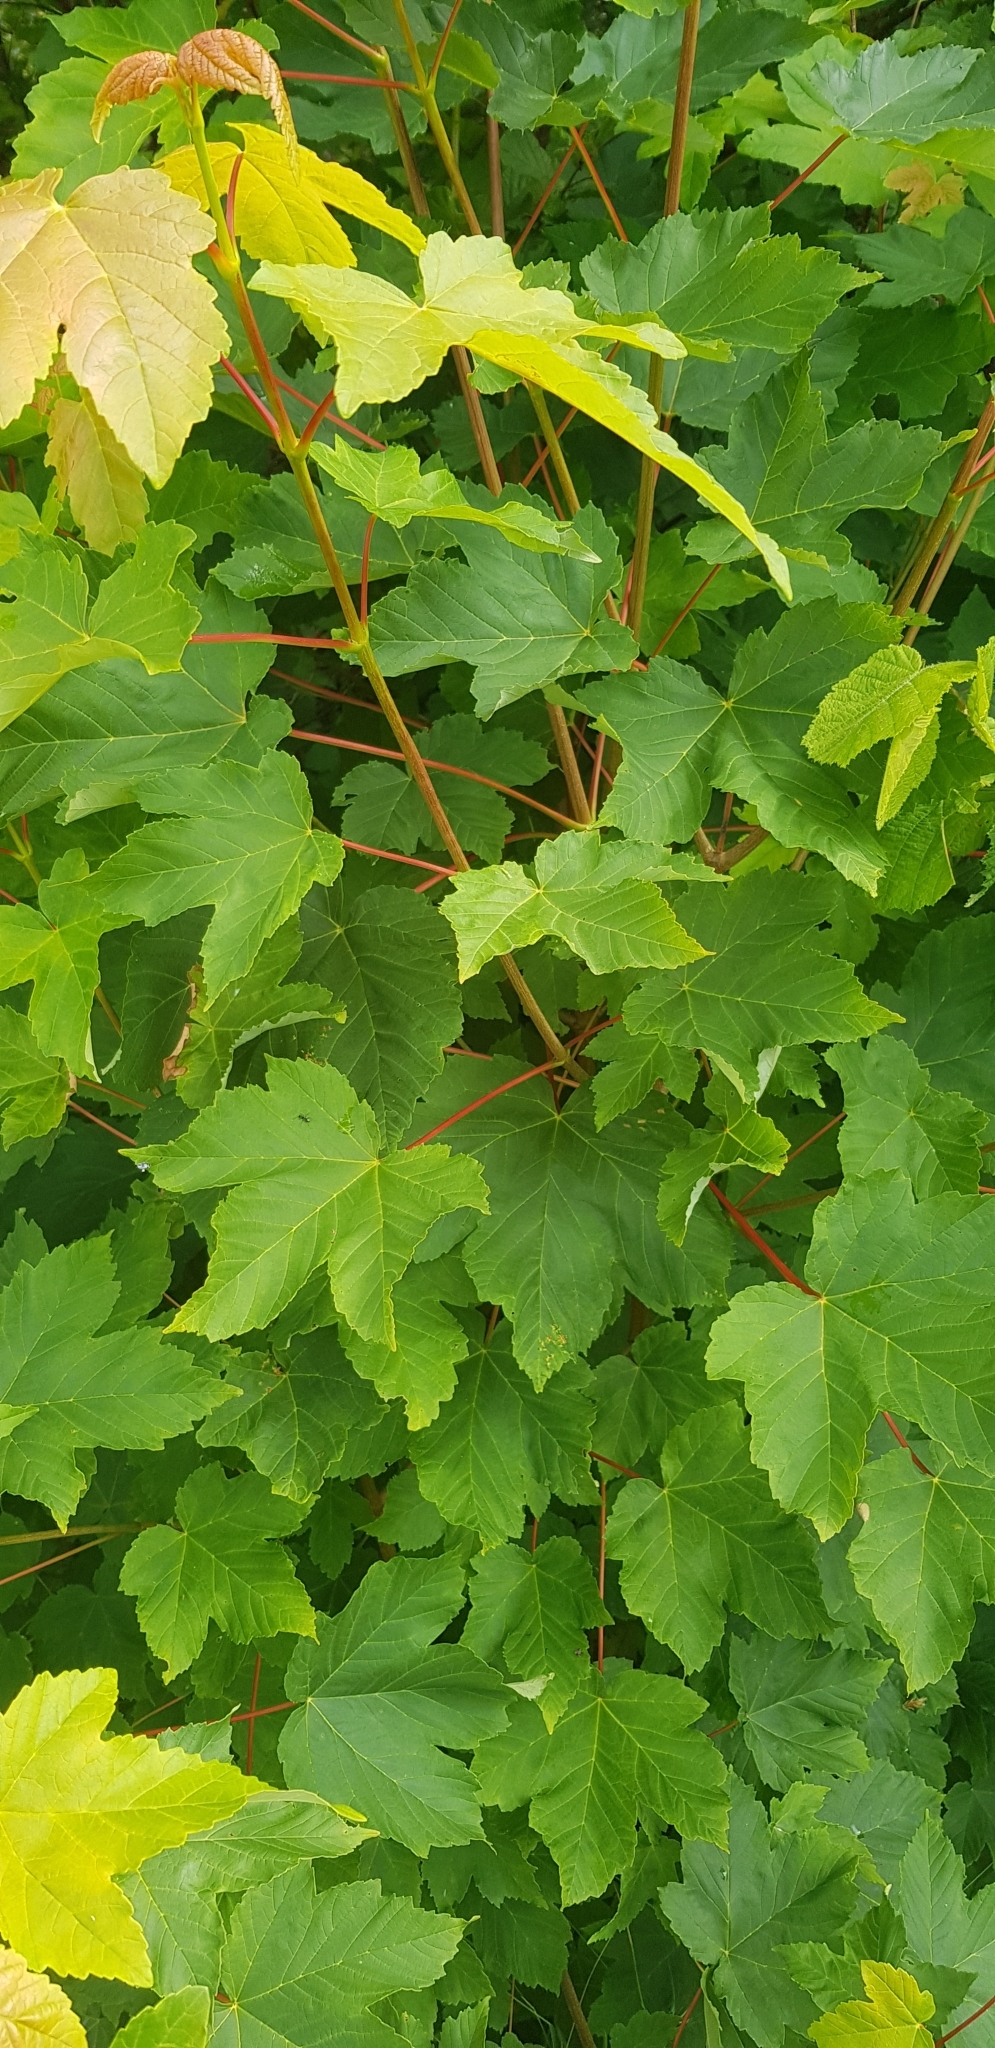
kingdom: Plantae
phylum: Tracheophyta
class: Magnoliopsida
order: Sapindales
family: Sapindaceae
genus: Acer
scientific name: Acer pseudoplatanus
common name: Sycamore
